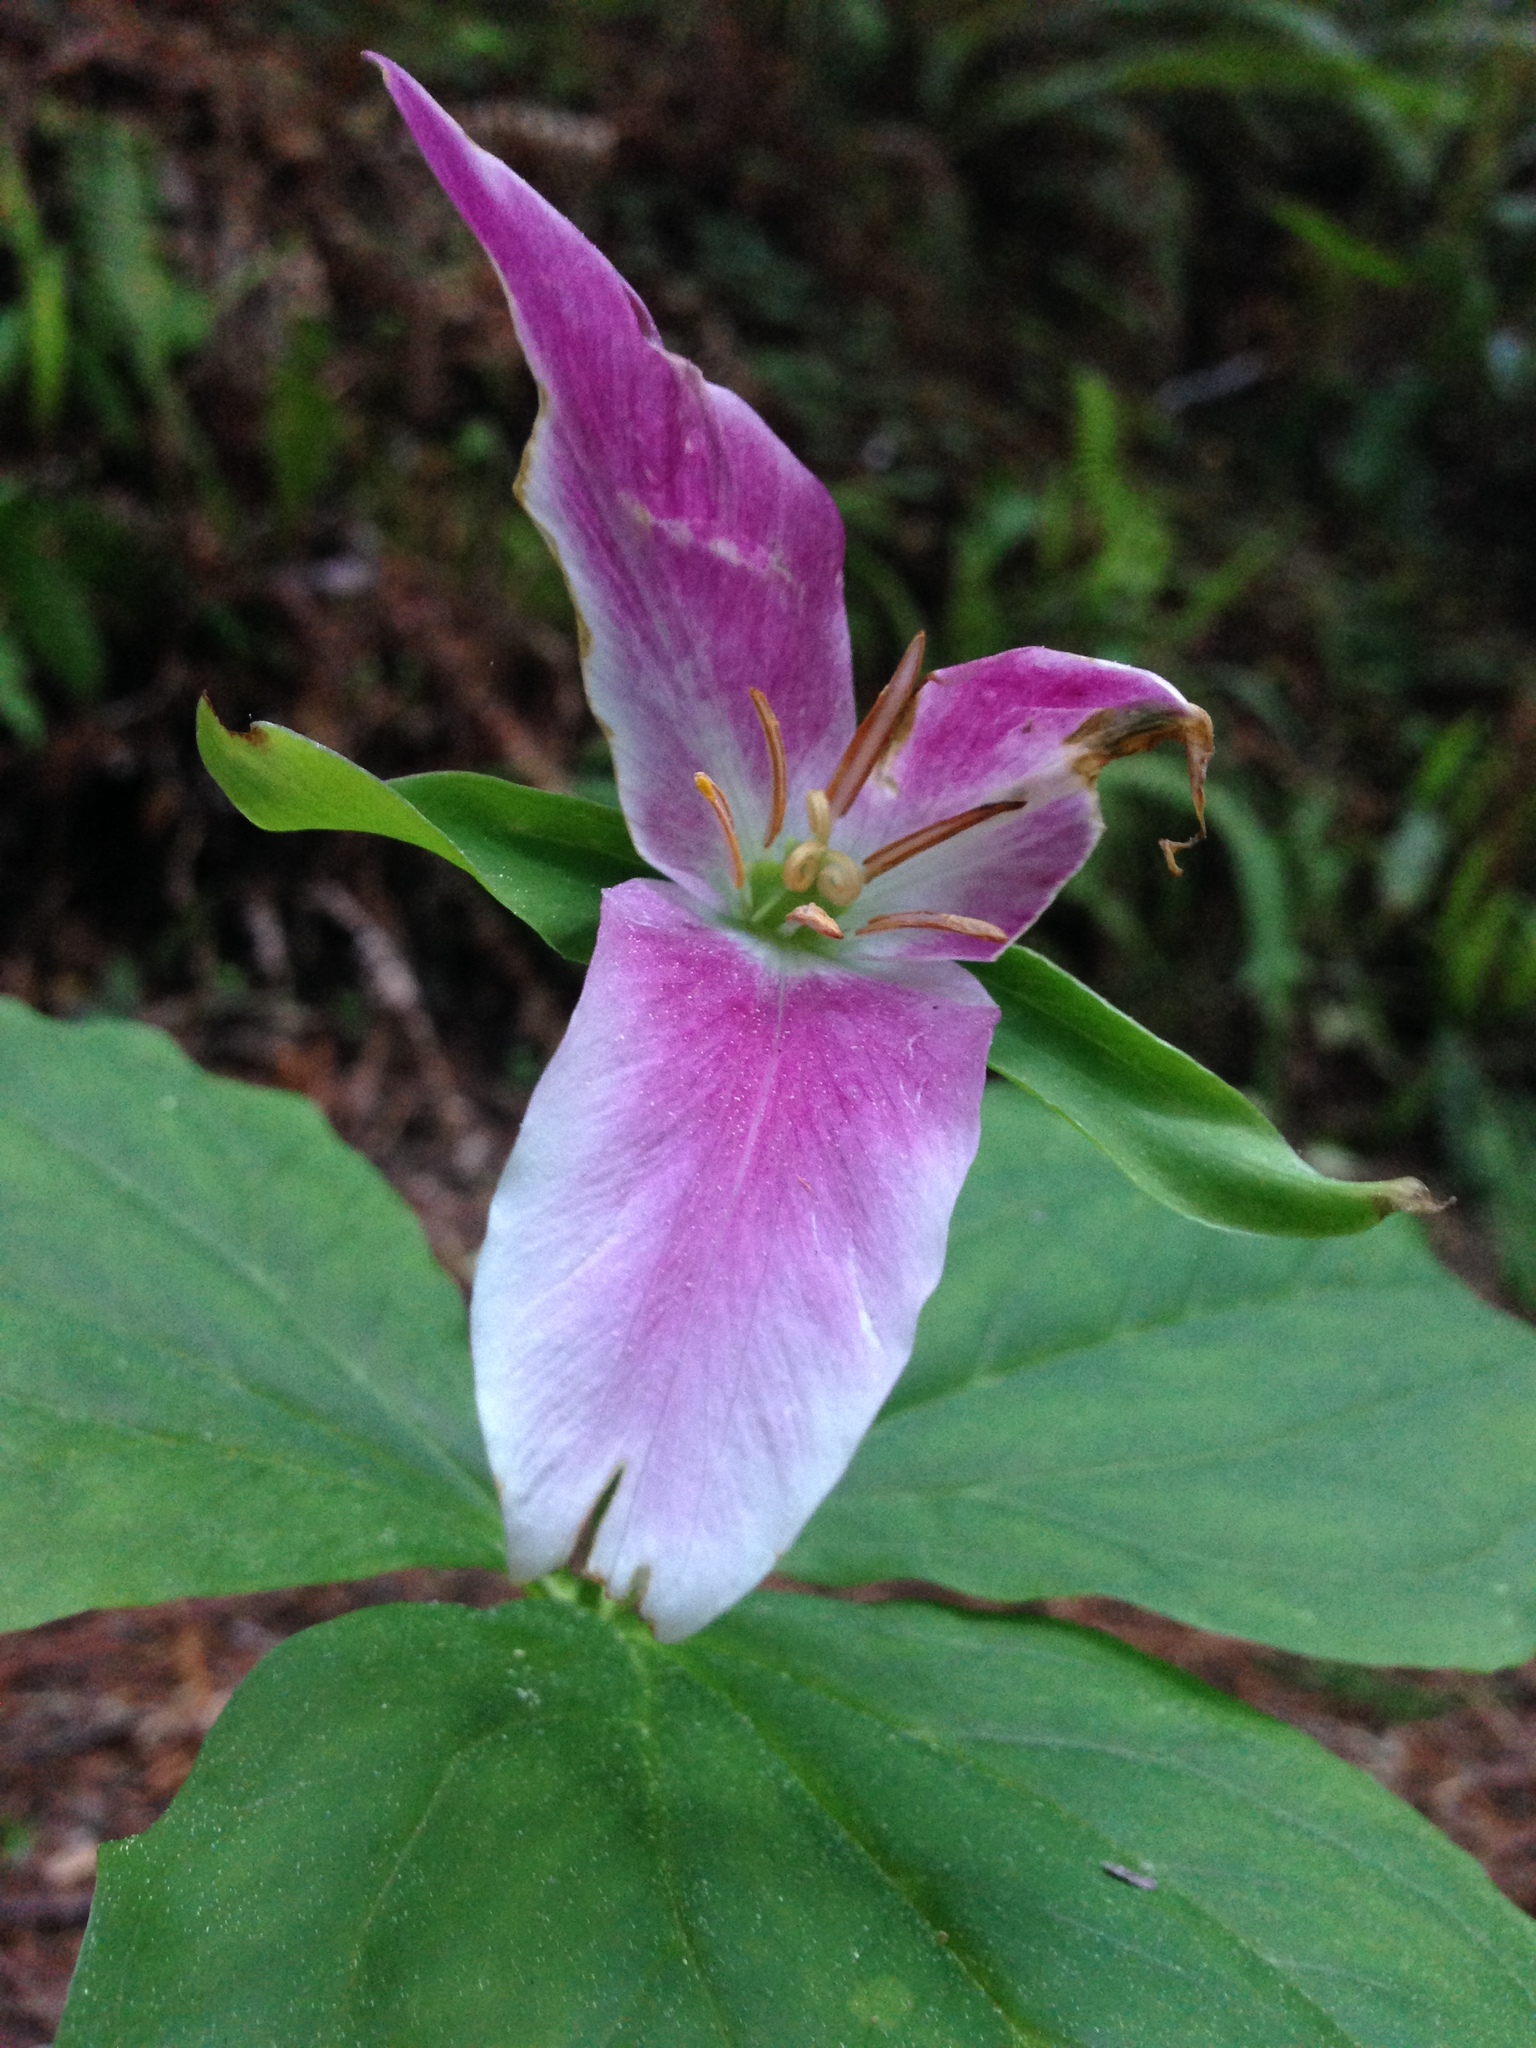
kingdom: Plantae
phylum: Tracheophyta
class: Liliopsida
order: Liliales
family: Melanthiaceae
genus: Trillium
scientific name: Trillium ovatum
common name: Pacific trillium
